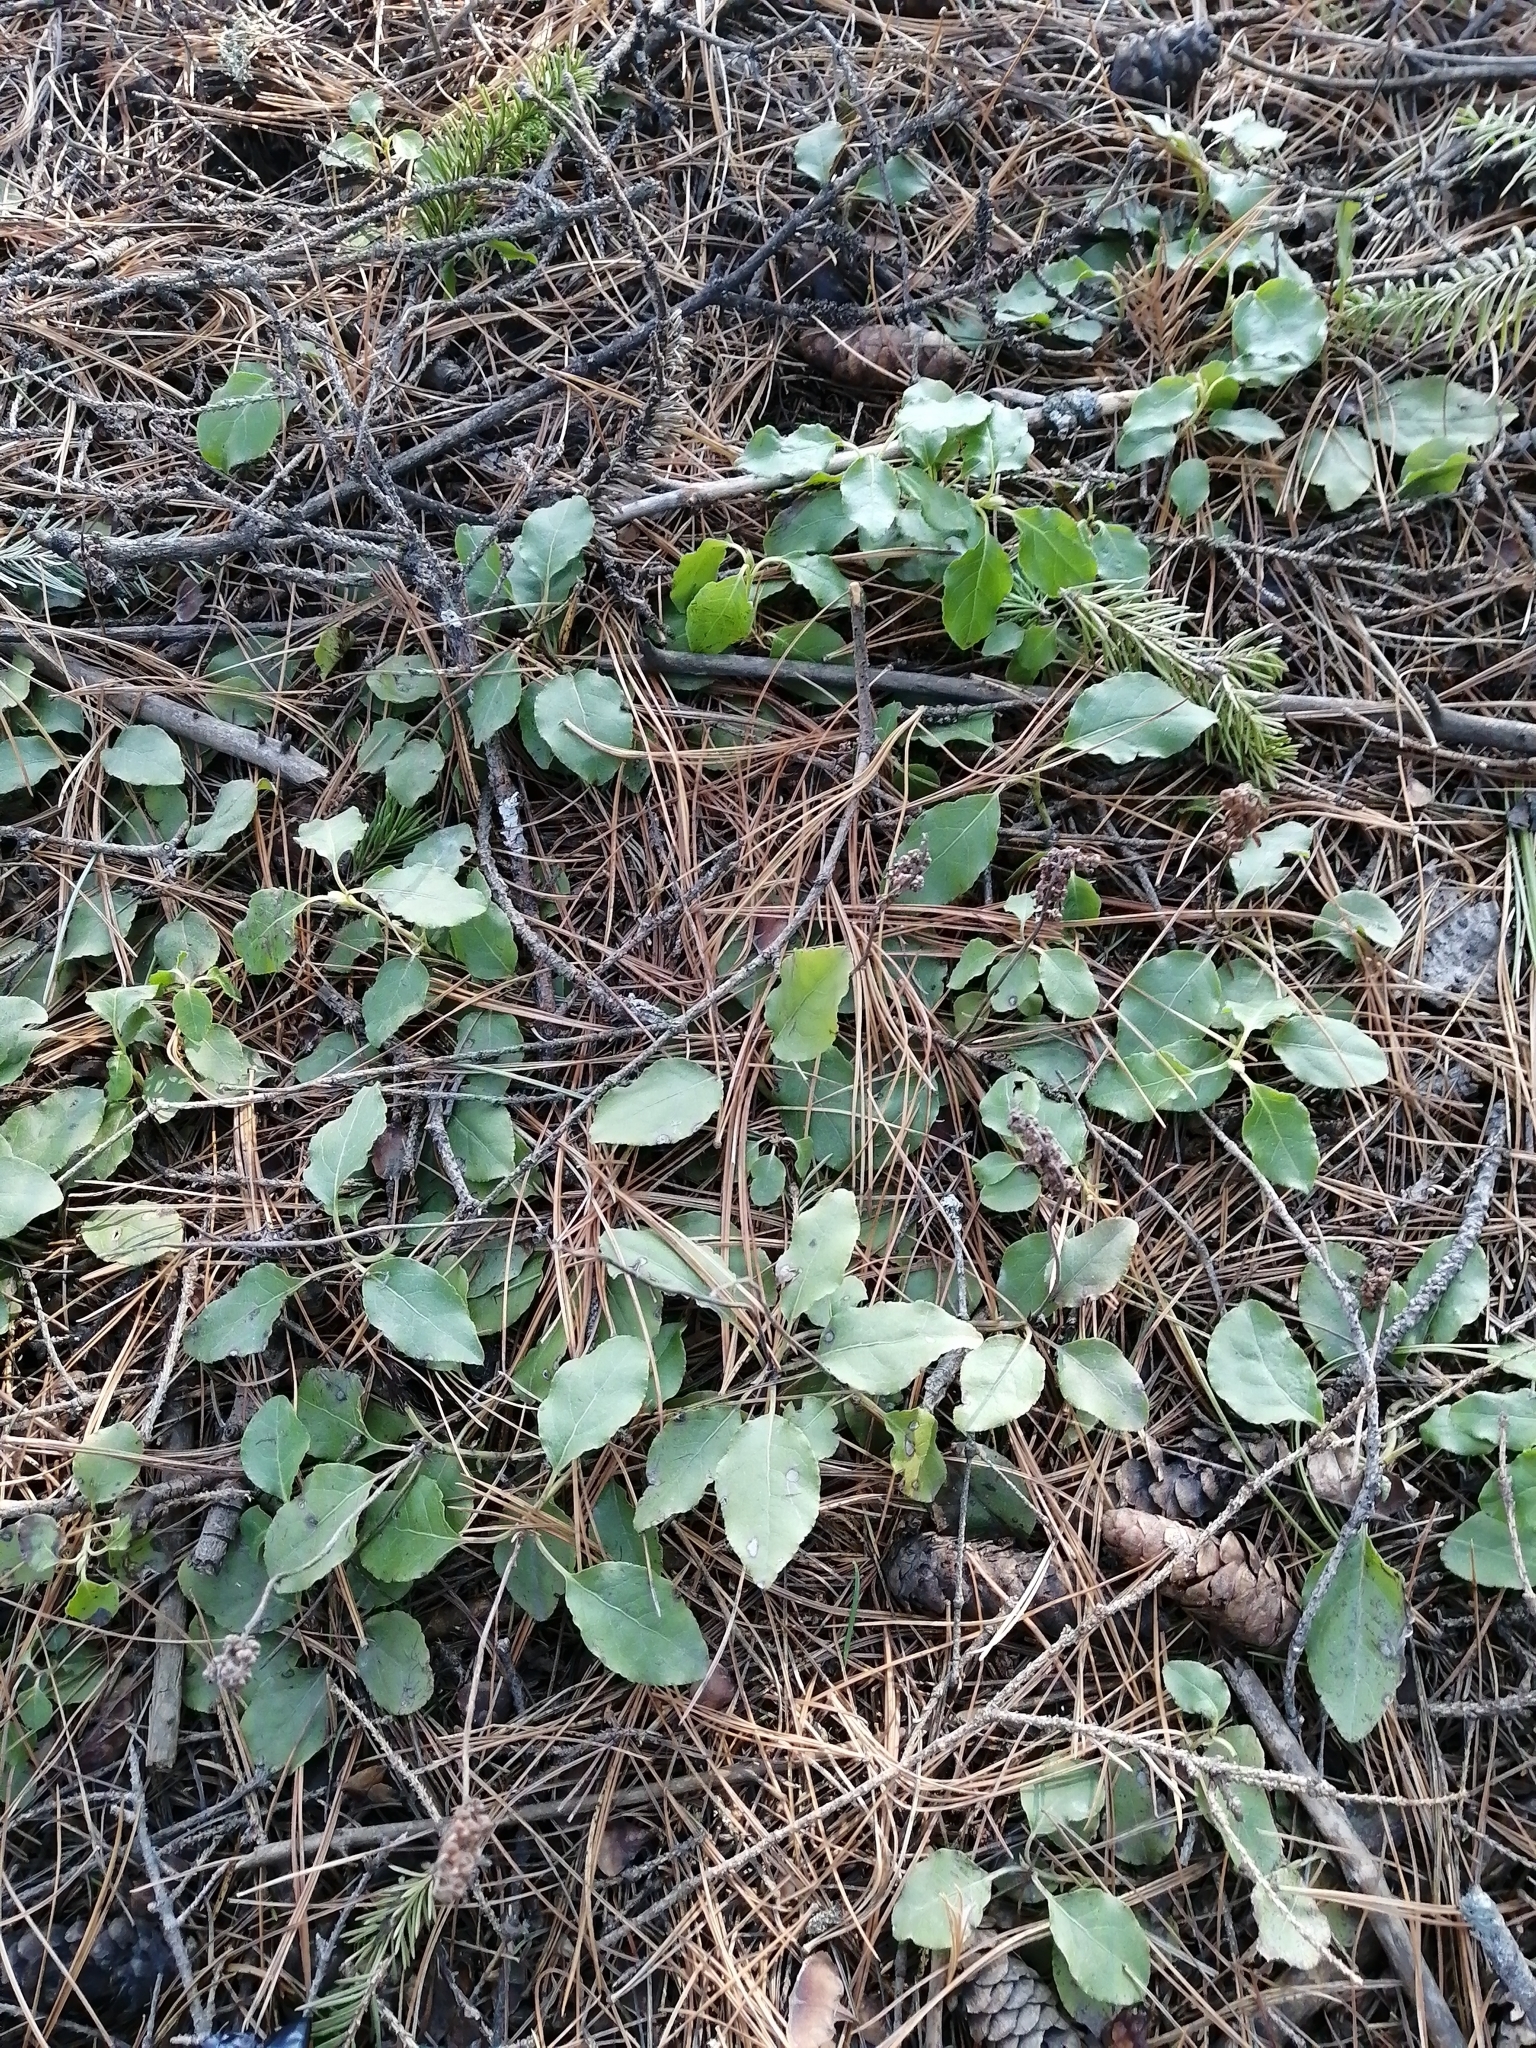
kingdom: Plantae
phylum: Tracheophyta
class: Magnoliopsida
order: Ericales
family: Ericaceae
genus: Orthilia
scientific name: Orthilia secunda
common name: One-sided orthilia
